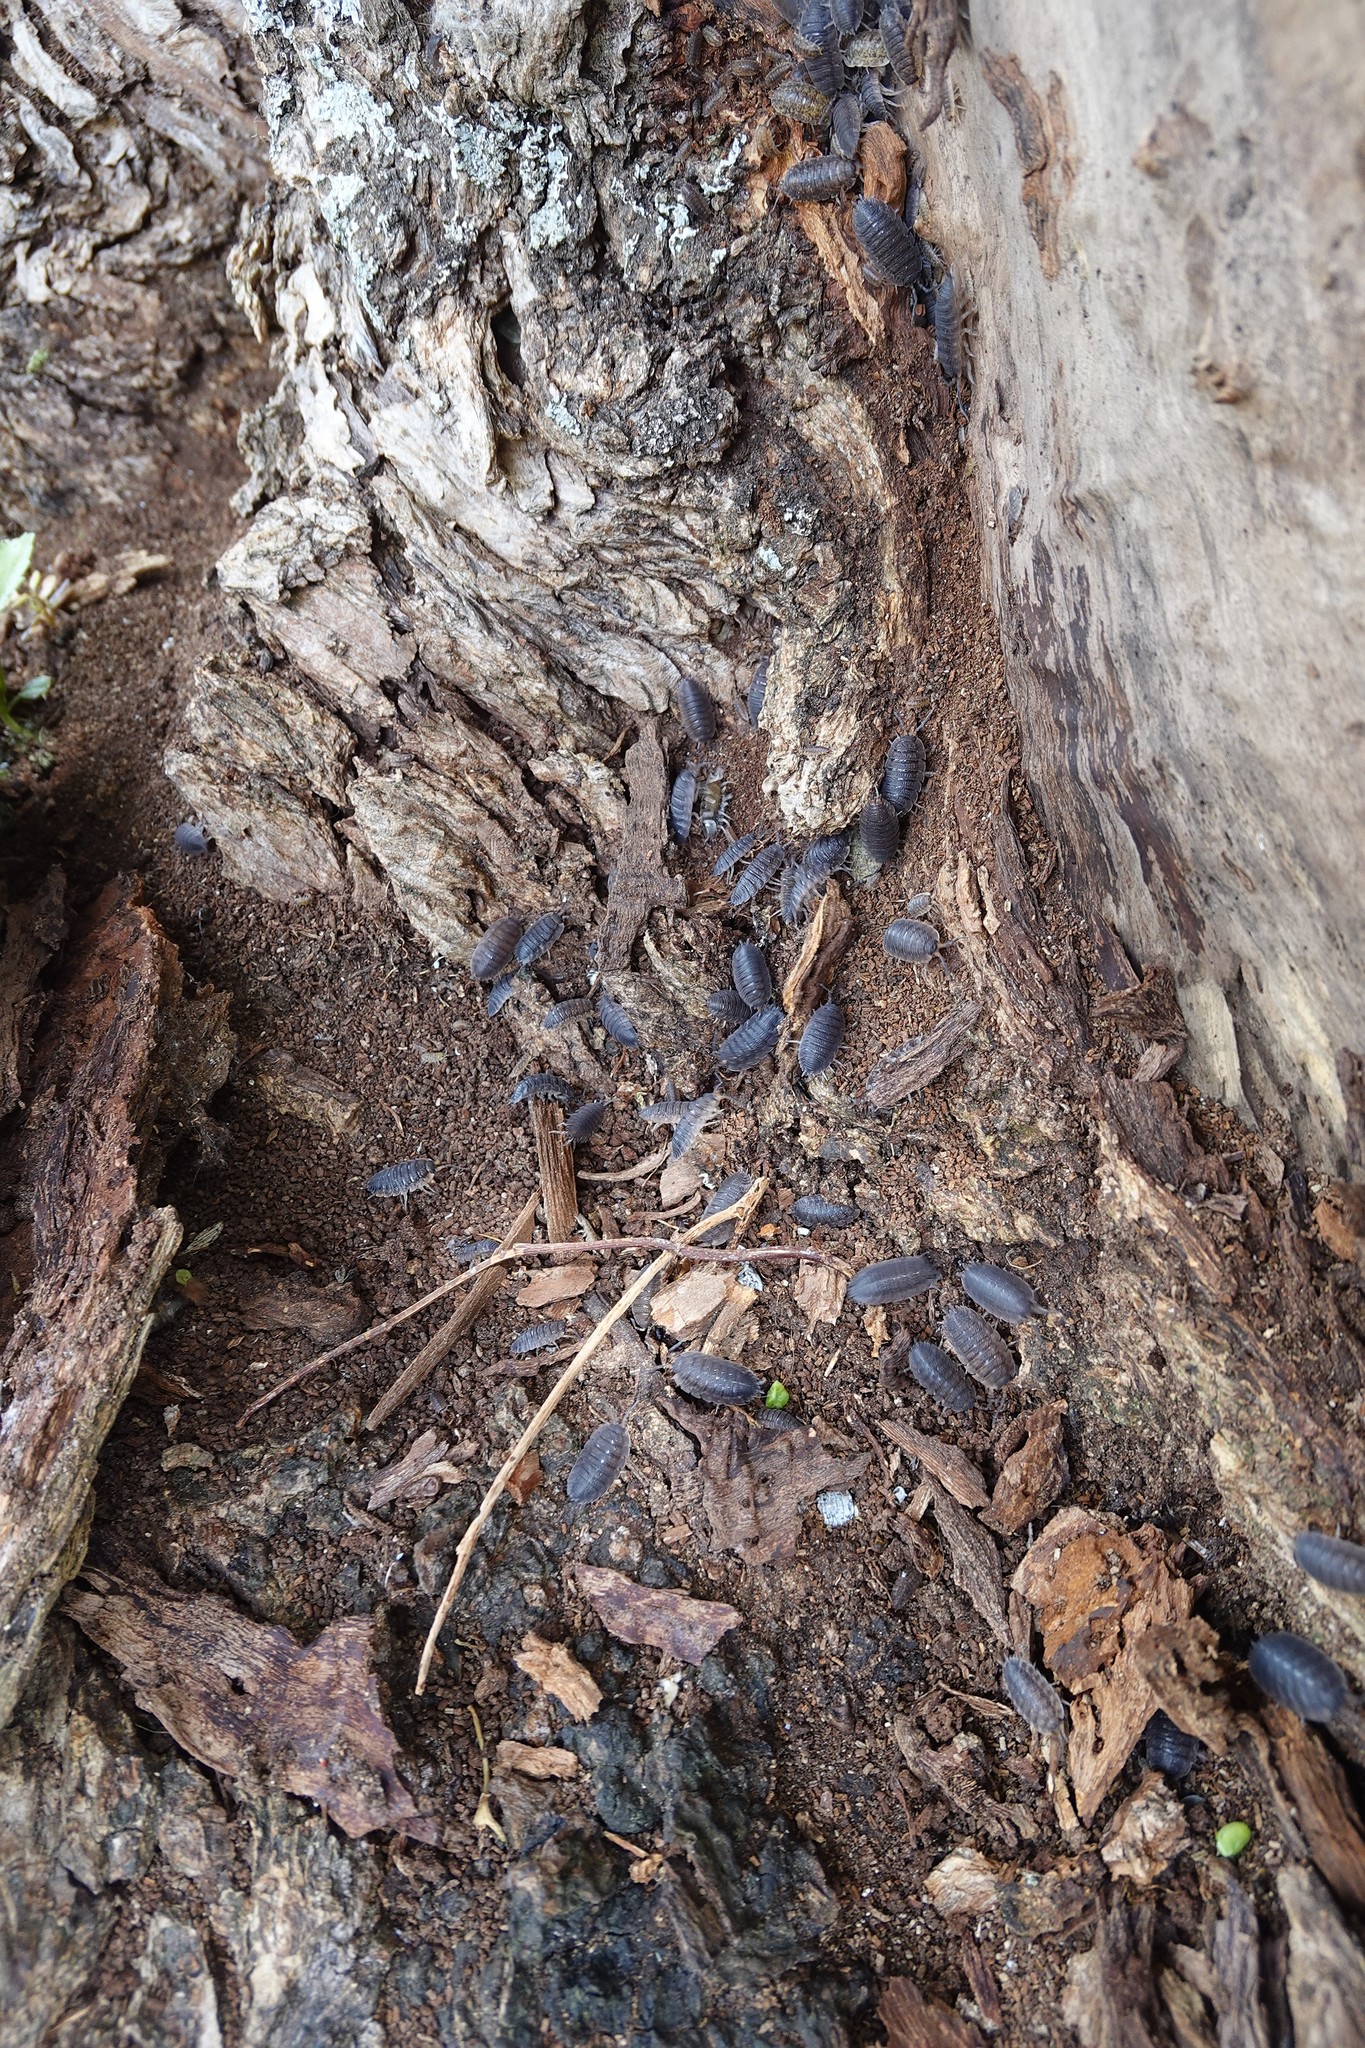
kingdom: Animalia
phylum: Arthropoda
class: Malacostraca
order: Isopoda
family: Porcellionidae
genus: Porcellio
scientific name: Porcellio scaber
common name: Common rough woodlouse
